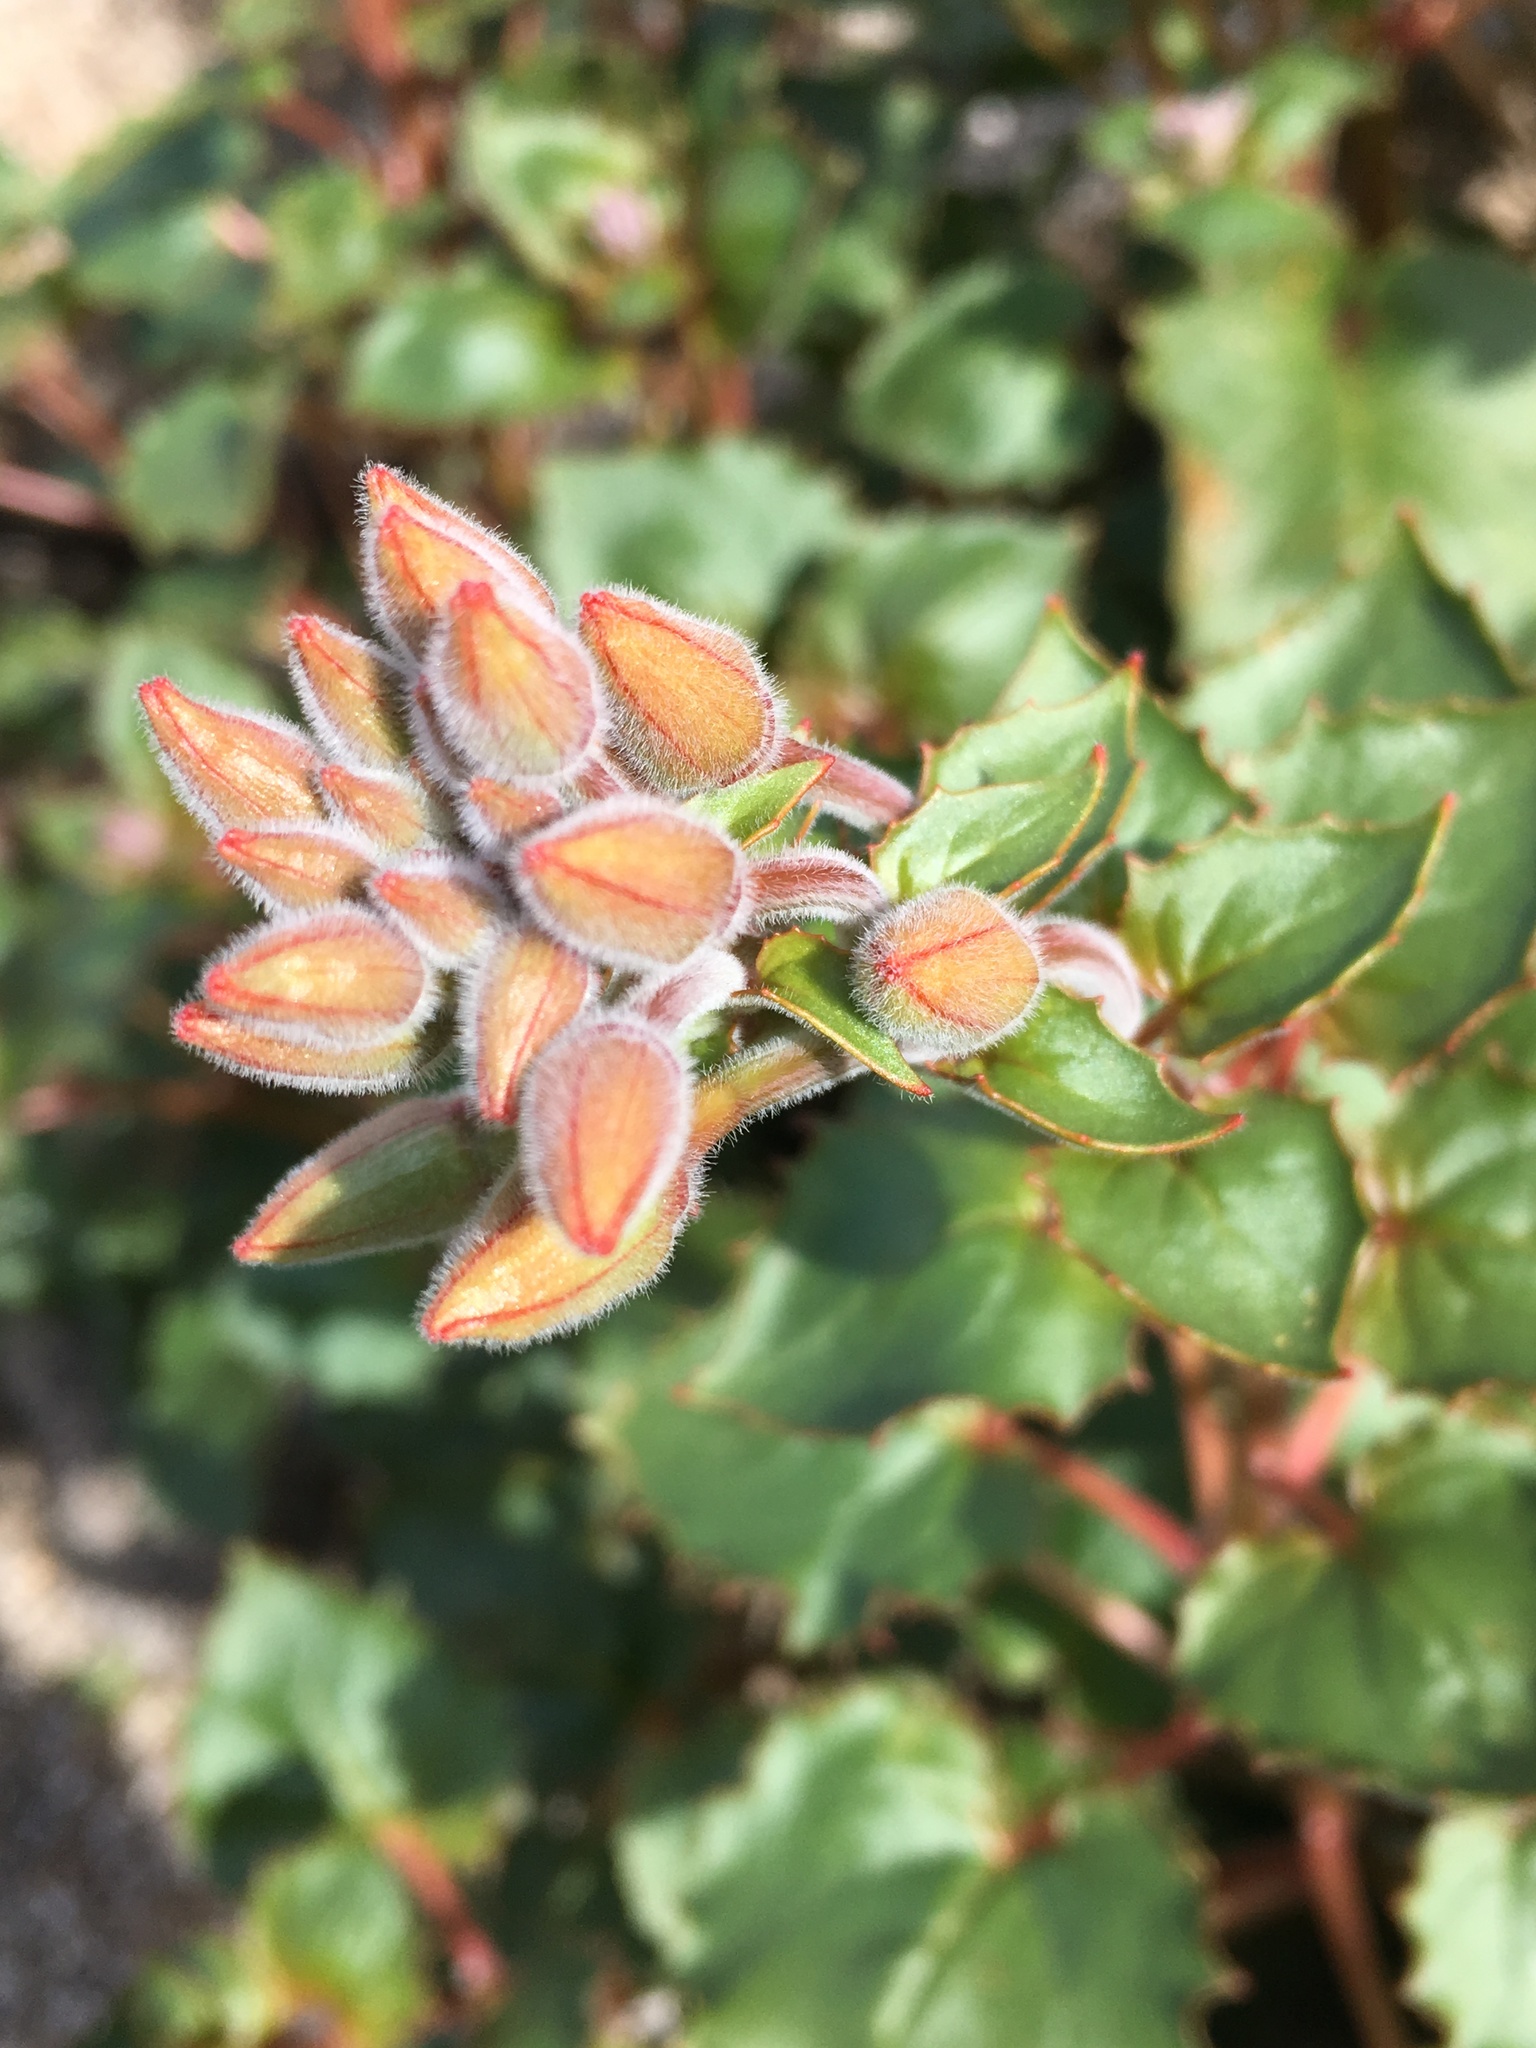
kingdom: Plantae
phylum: Tracheophyta
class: Magnoliopsida
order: Myrtales
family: Onagraceae
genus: Chylismia
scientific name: Chylismia cardiophylla
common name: Heartleaf suncup
